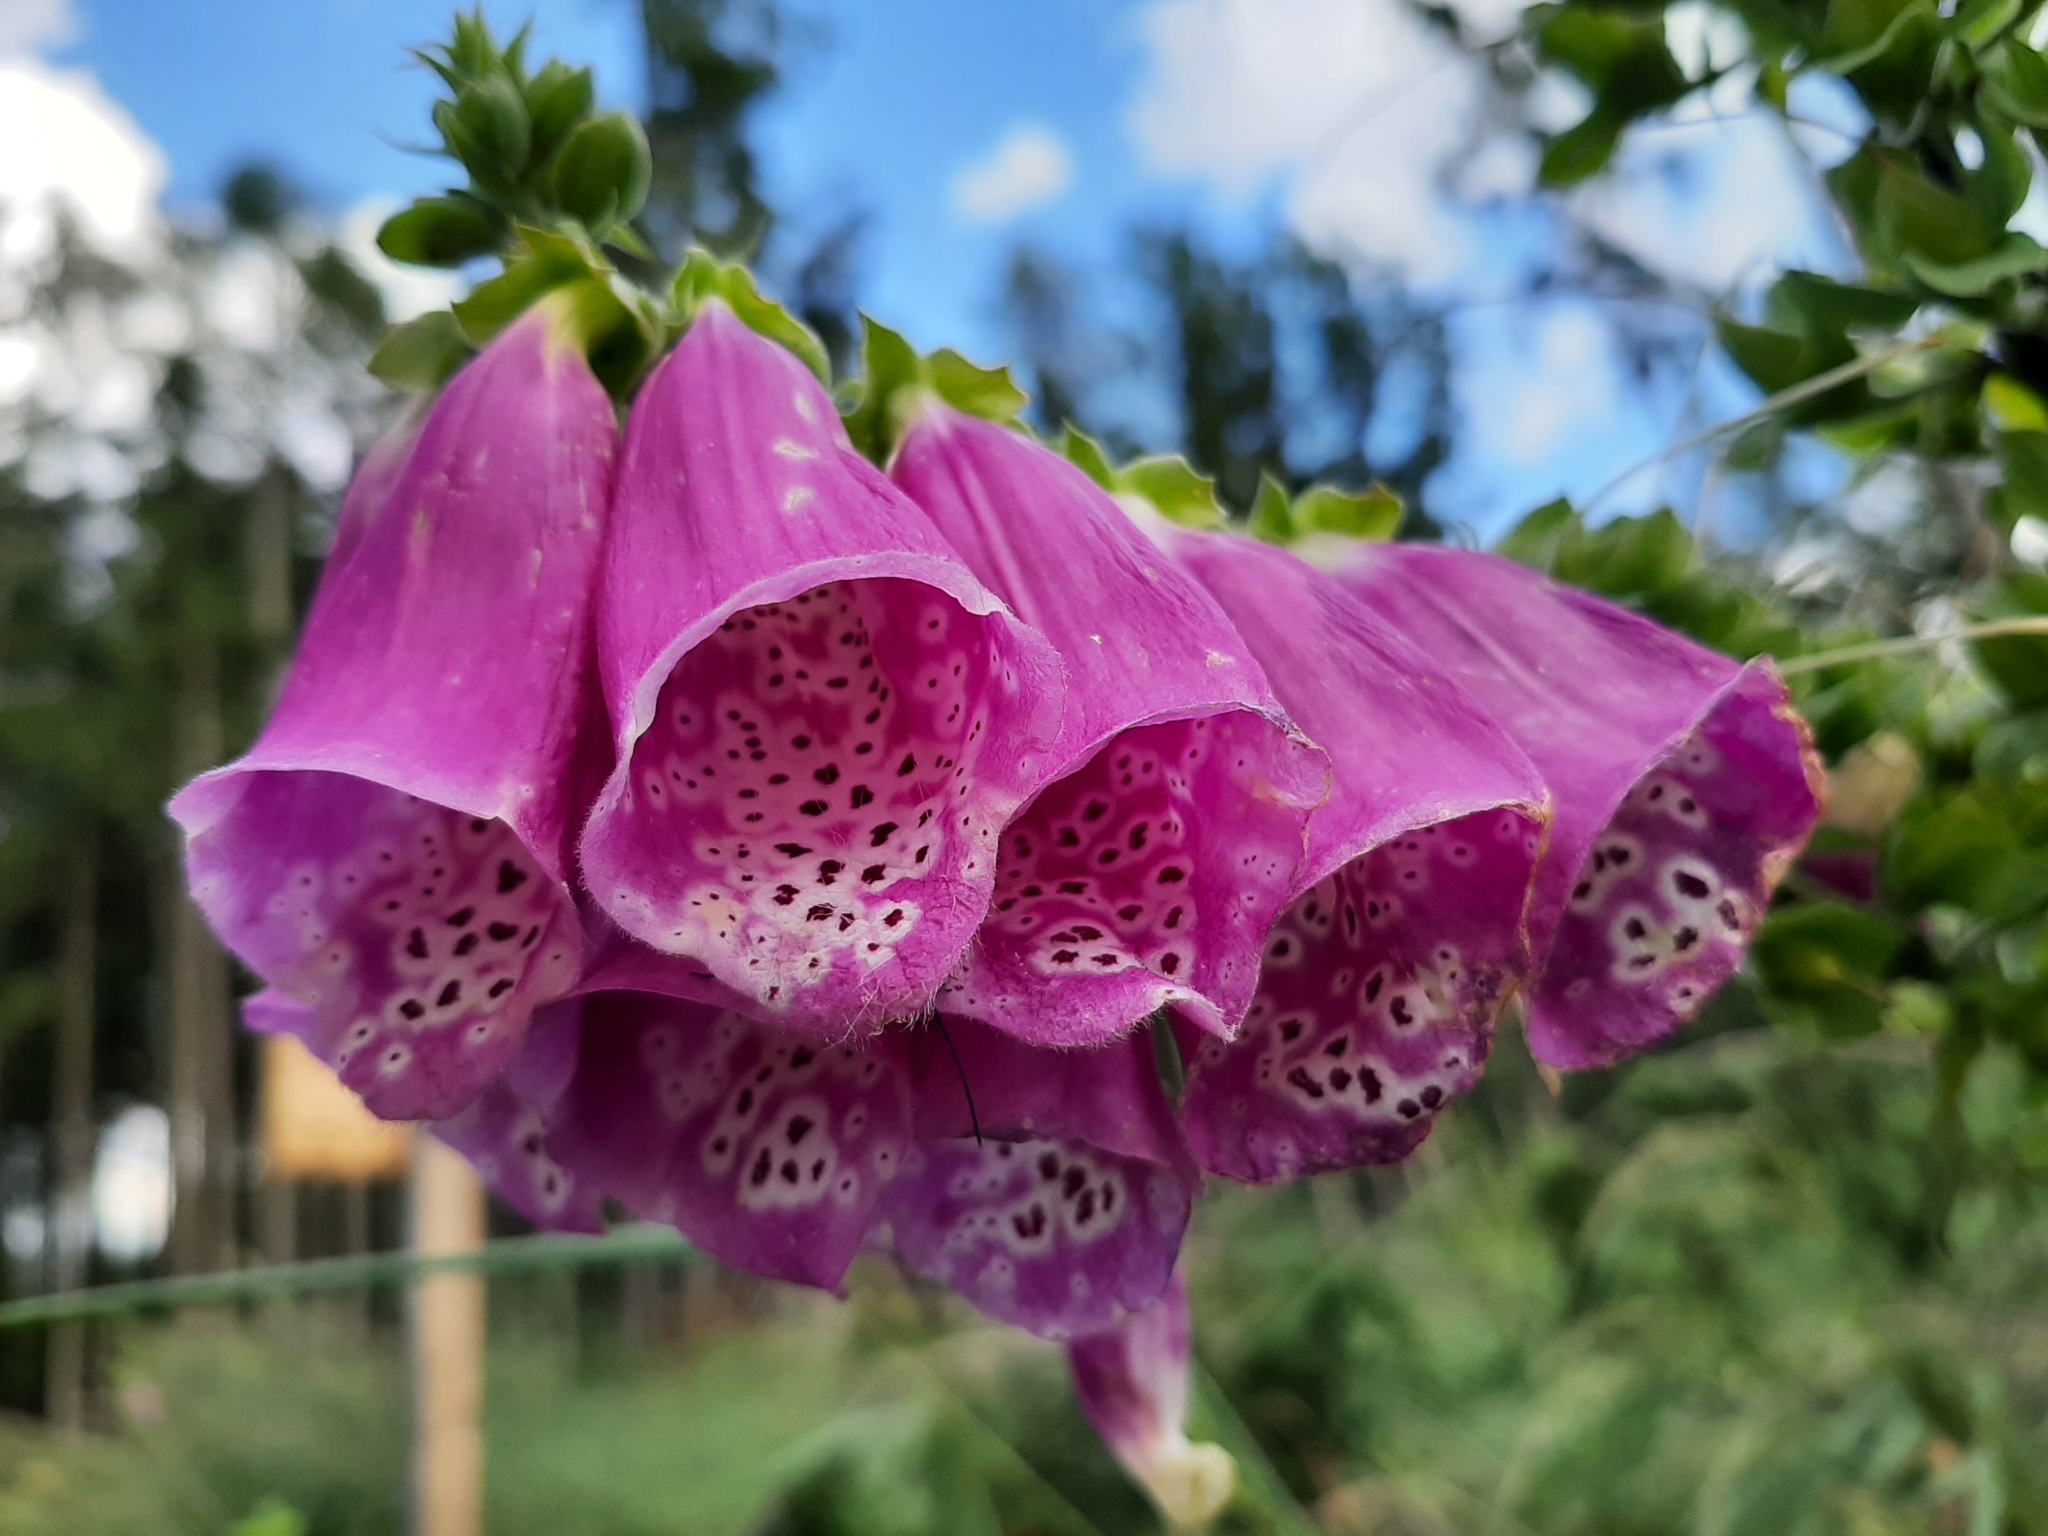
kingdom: Plantae
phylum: Tracheophyta
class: Magnoliopsida
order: Lamiales
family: Plantaginaceae
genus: Digitalis
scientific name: Digitalis purpurea
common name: Foxglove
